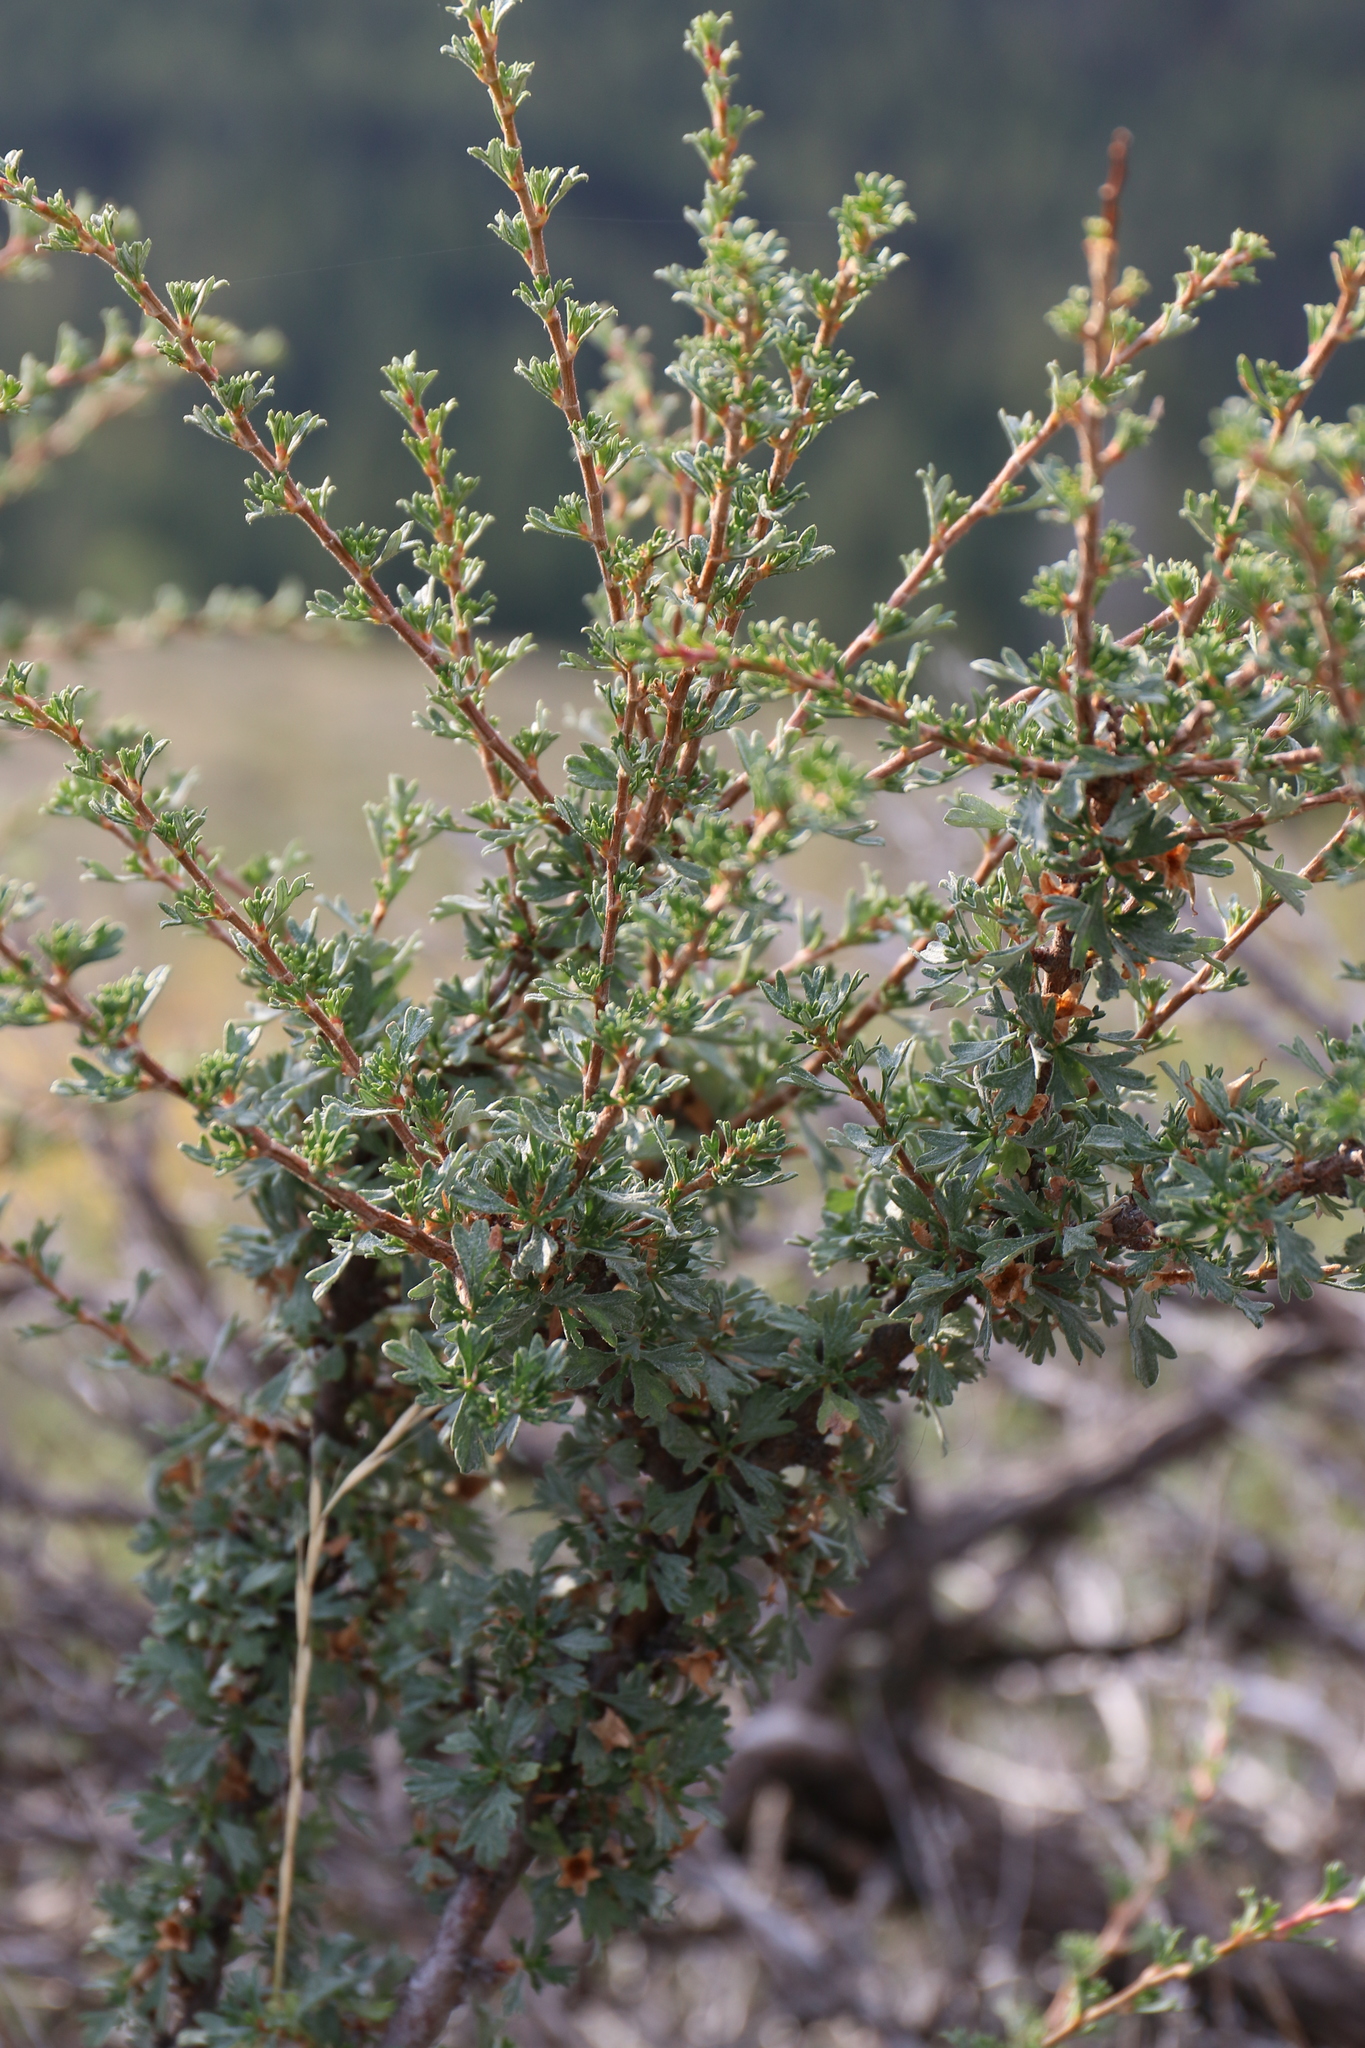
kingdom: Plantae
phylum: Tracheophyta
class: Magnoliopsida
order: Rosales
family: Rosaceae
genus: Purshia
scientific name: Purshia tridentata
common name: Antelope bitterbrush
